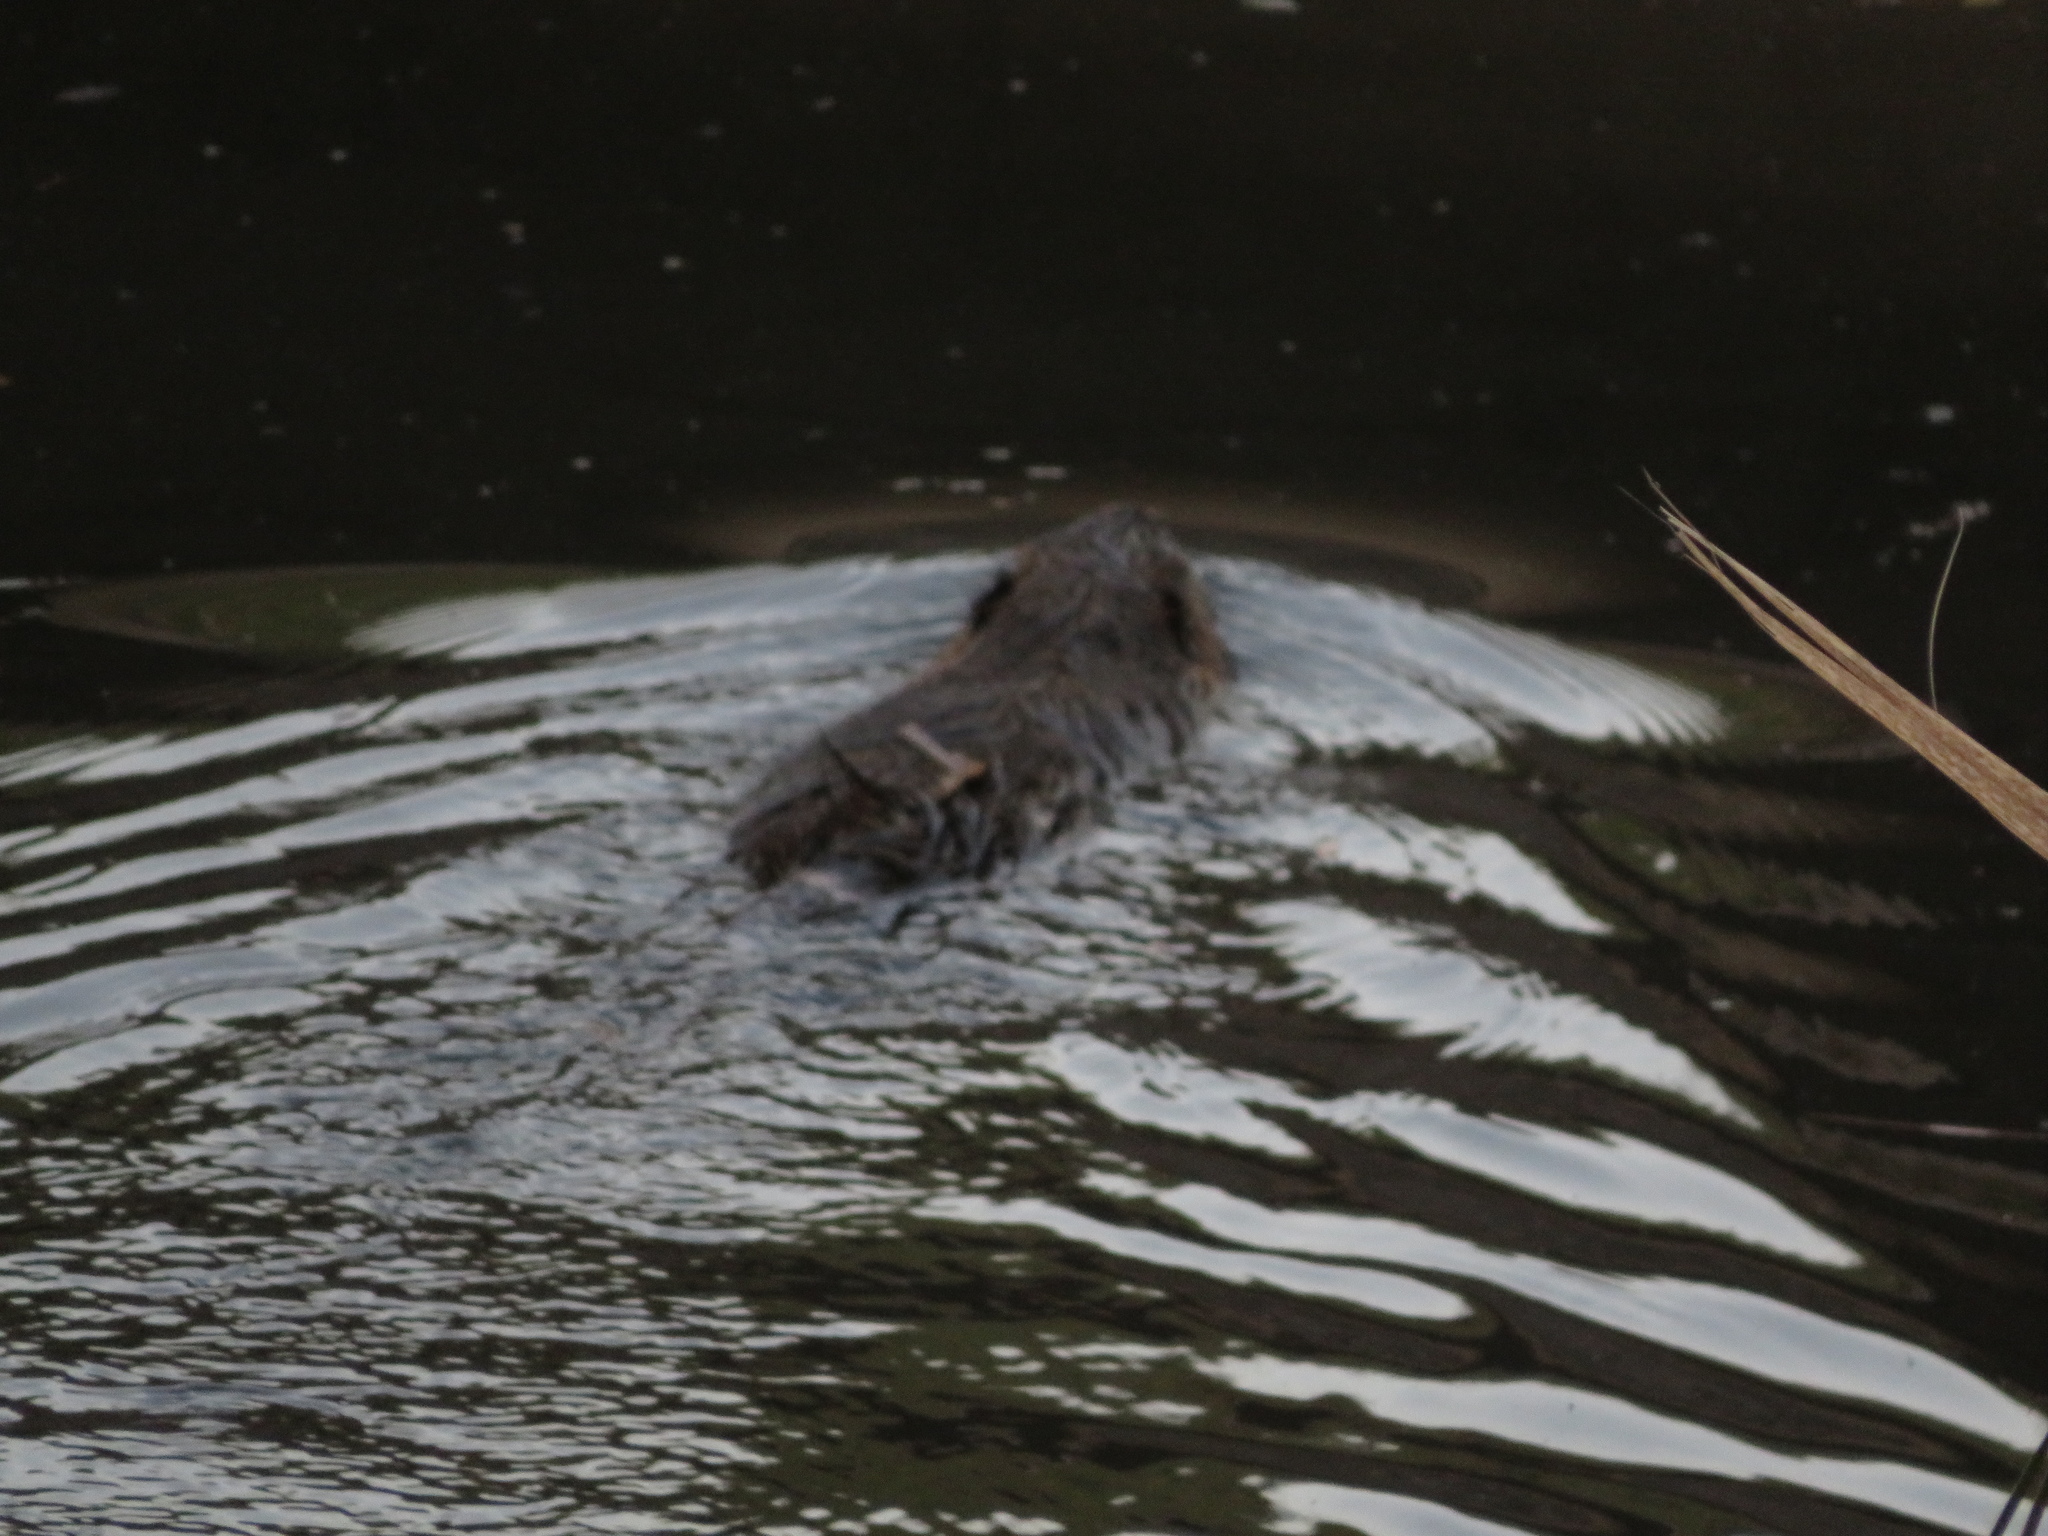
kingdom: Animalia
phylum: Chordata
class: Mammalia
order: Rodentia
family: Myocastoridae
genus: Myocastor
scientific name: Myocastor coypus
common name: Coypu
